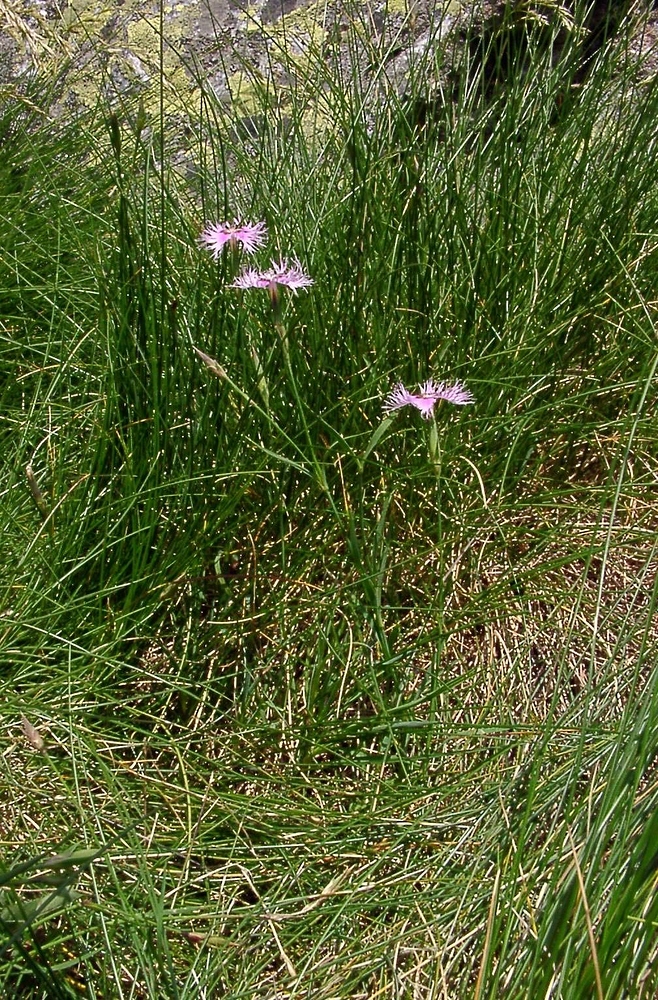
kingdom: Plantae
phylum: Tracheophyta
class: Magnoliopsida
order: Caryophyllales
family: Caryophyllaceae
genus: Dianthus
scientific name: Dianthus hyssopifolius
